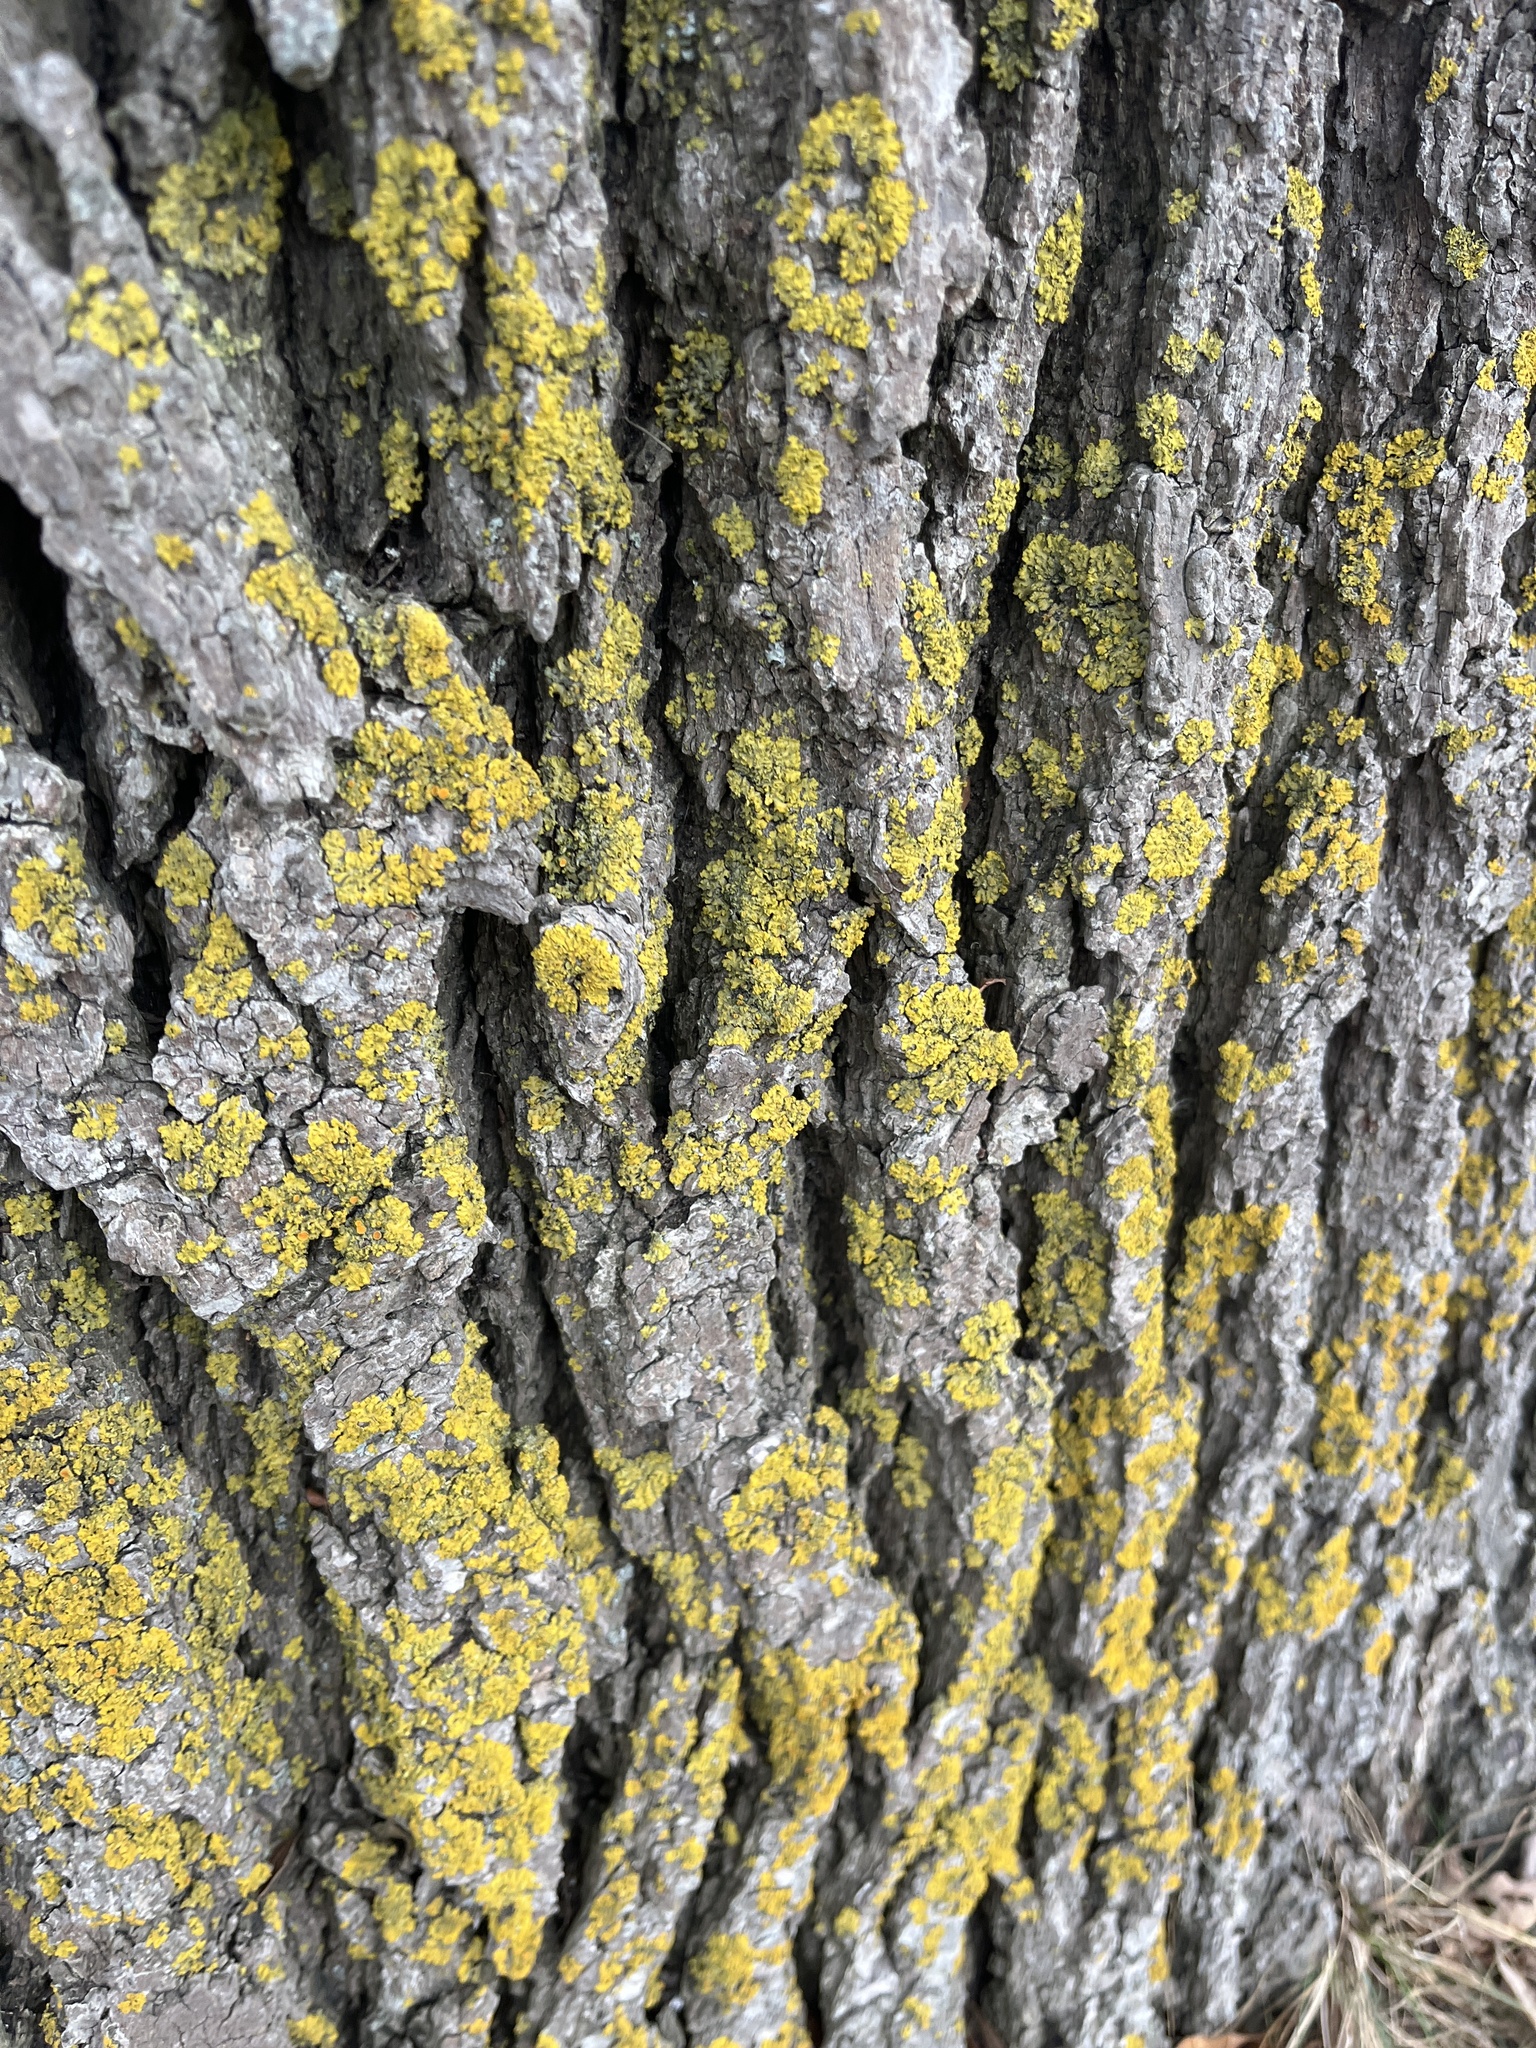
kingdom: Fungi
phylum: Ascomycota
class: Candelariomycetes
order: Candelariales
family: Candelariaceae
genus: Candelaria
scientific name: Candelaria concolor
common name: Candleflame lichen
